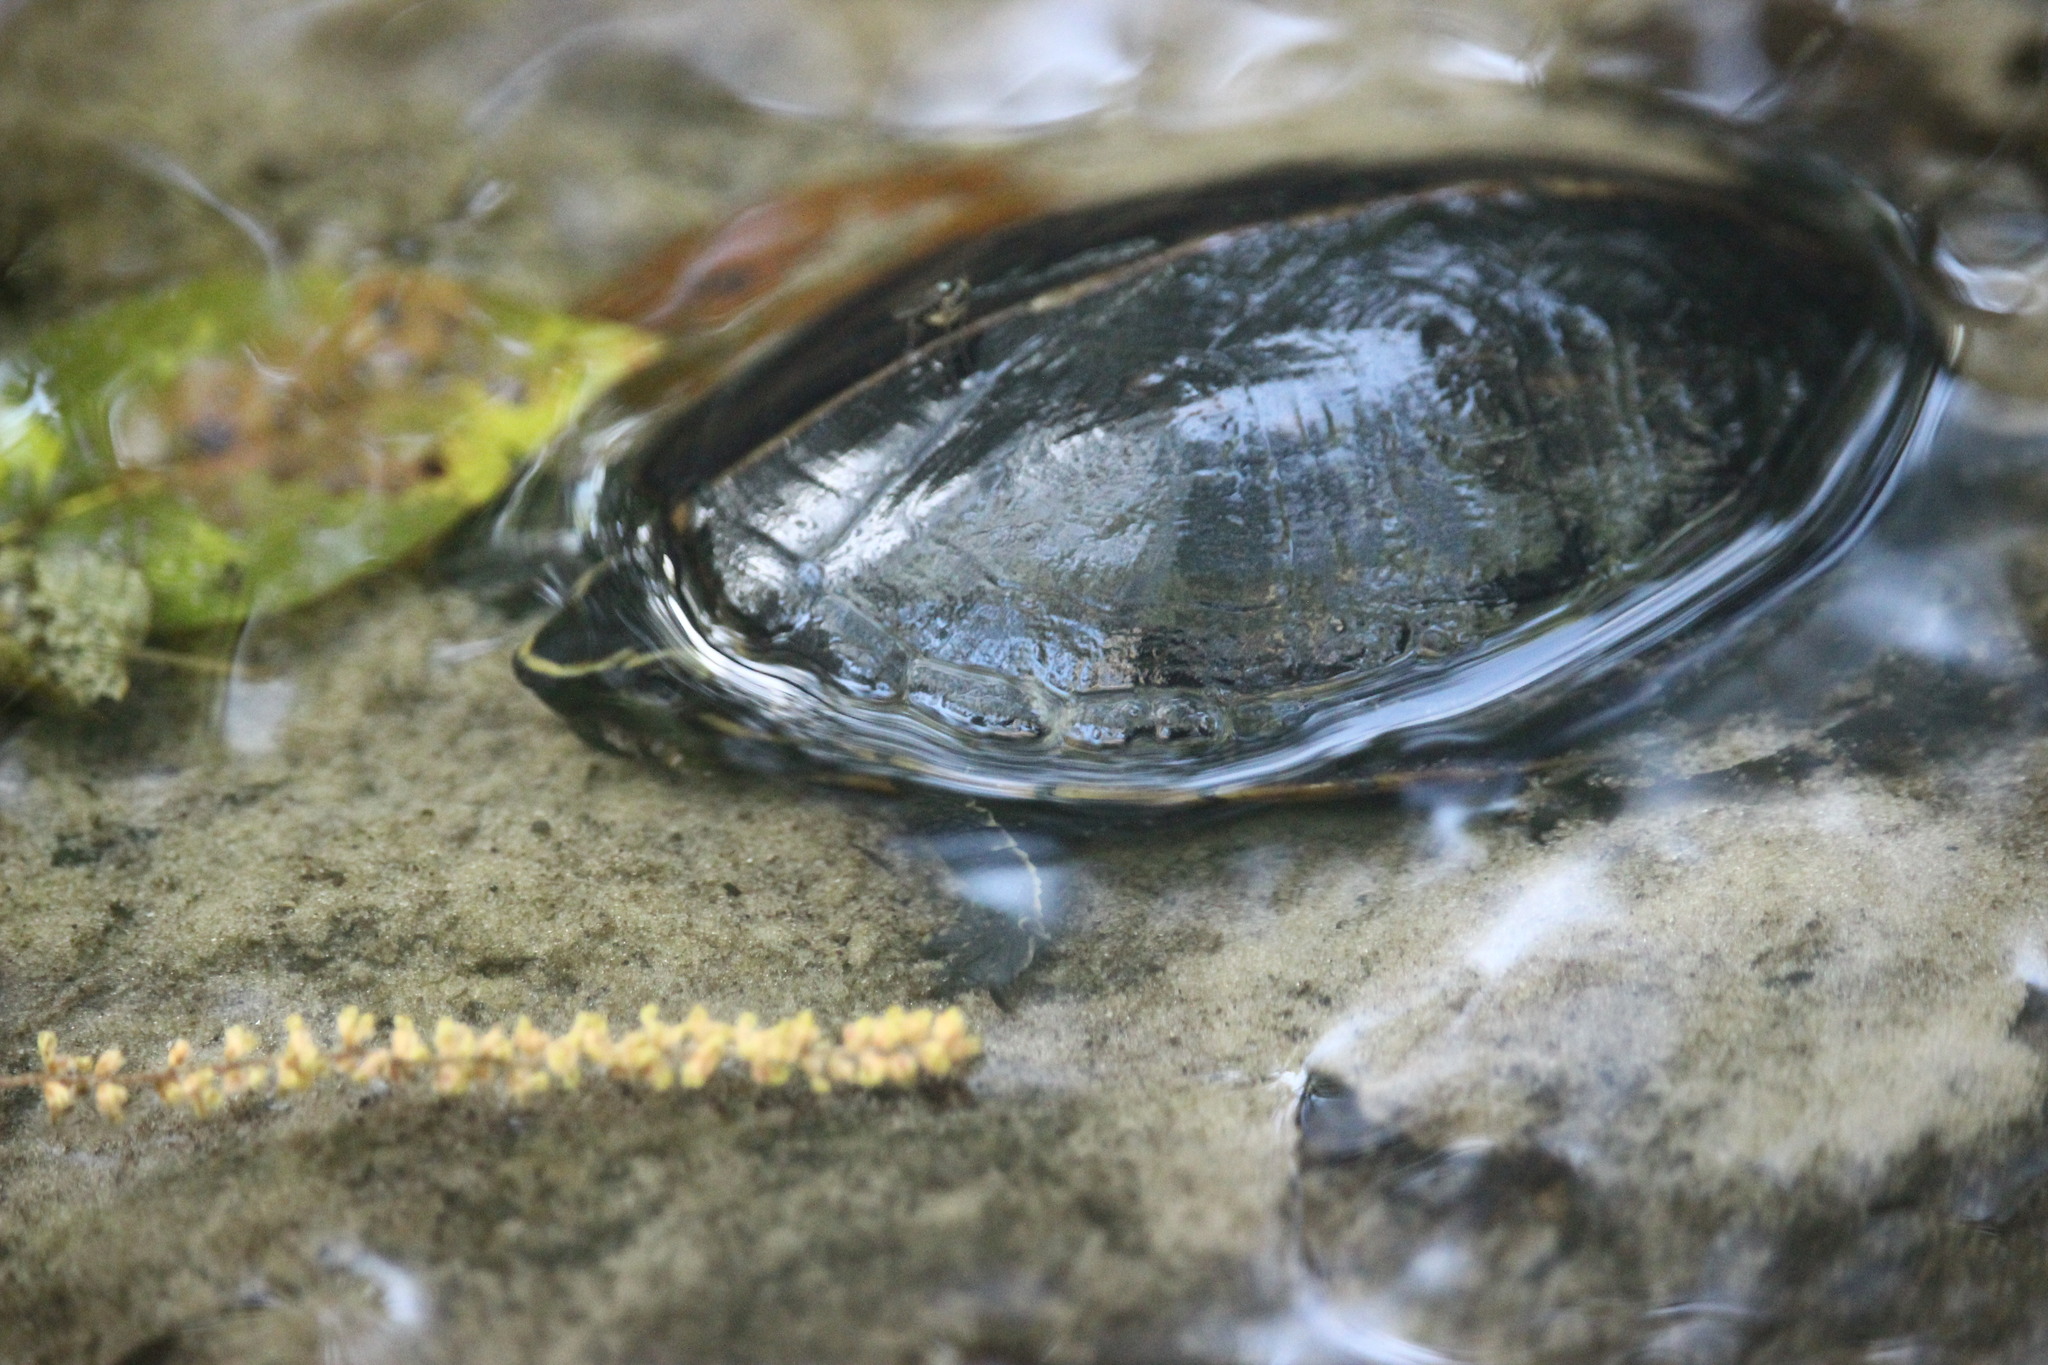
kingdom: Animalia
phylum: Chordata
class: Testudines
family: Kinosternidae
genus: Kinosternon
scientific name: Kinosternon baurii
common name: Striped mud turtle
